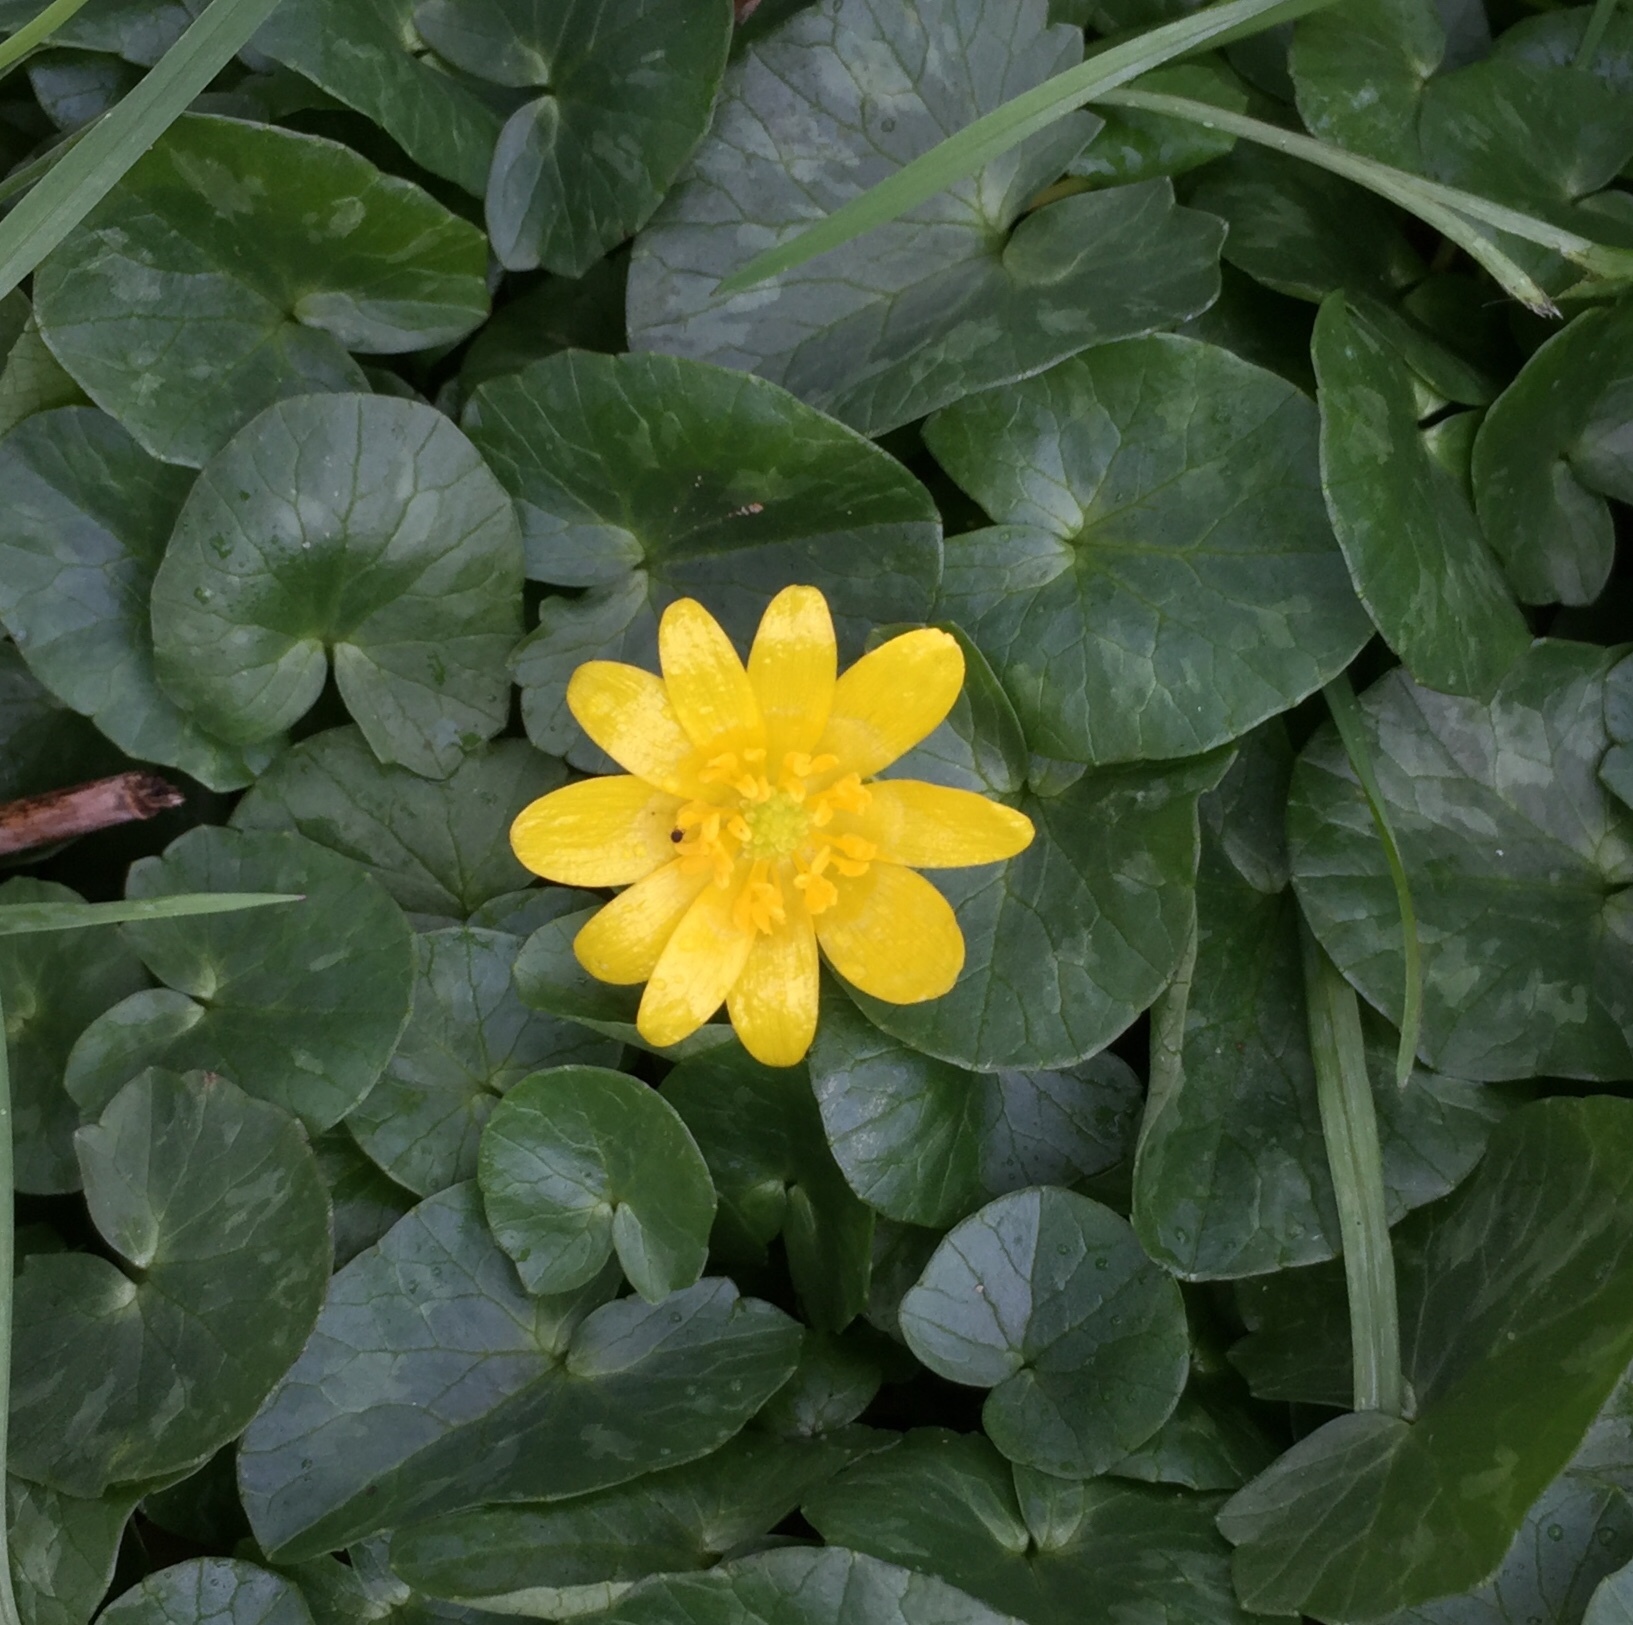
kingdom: Plantae
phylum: Tracheophyta
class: Magnoliopsida
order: Ranunculales
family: Ranunculaceae
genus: Ficaria
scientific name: Ficaria verna
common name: Lesser celandine
